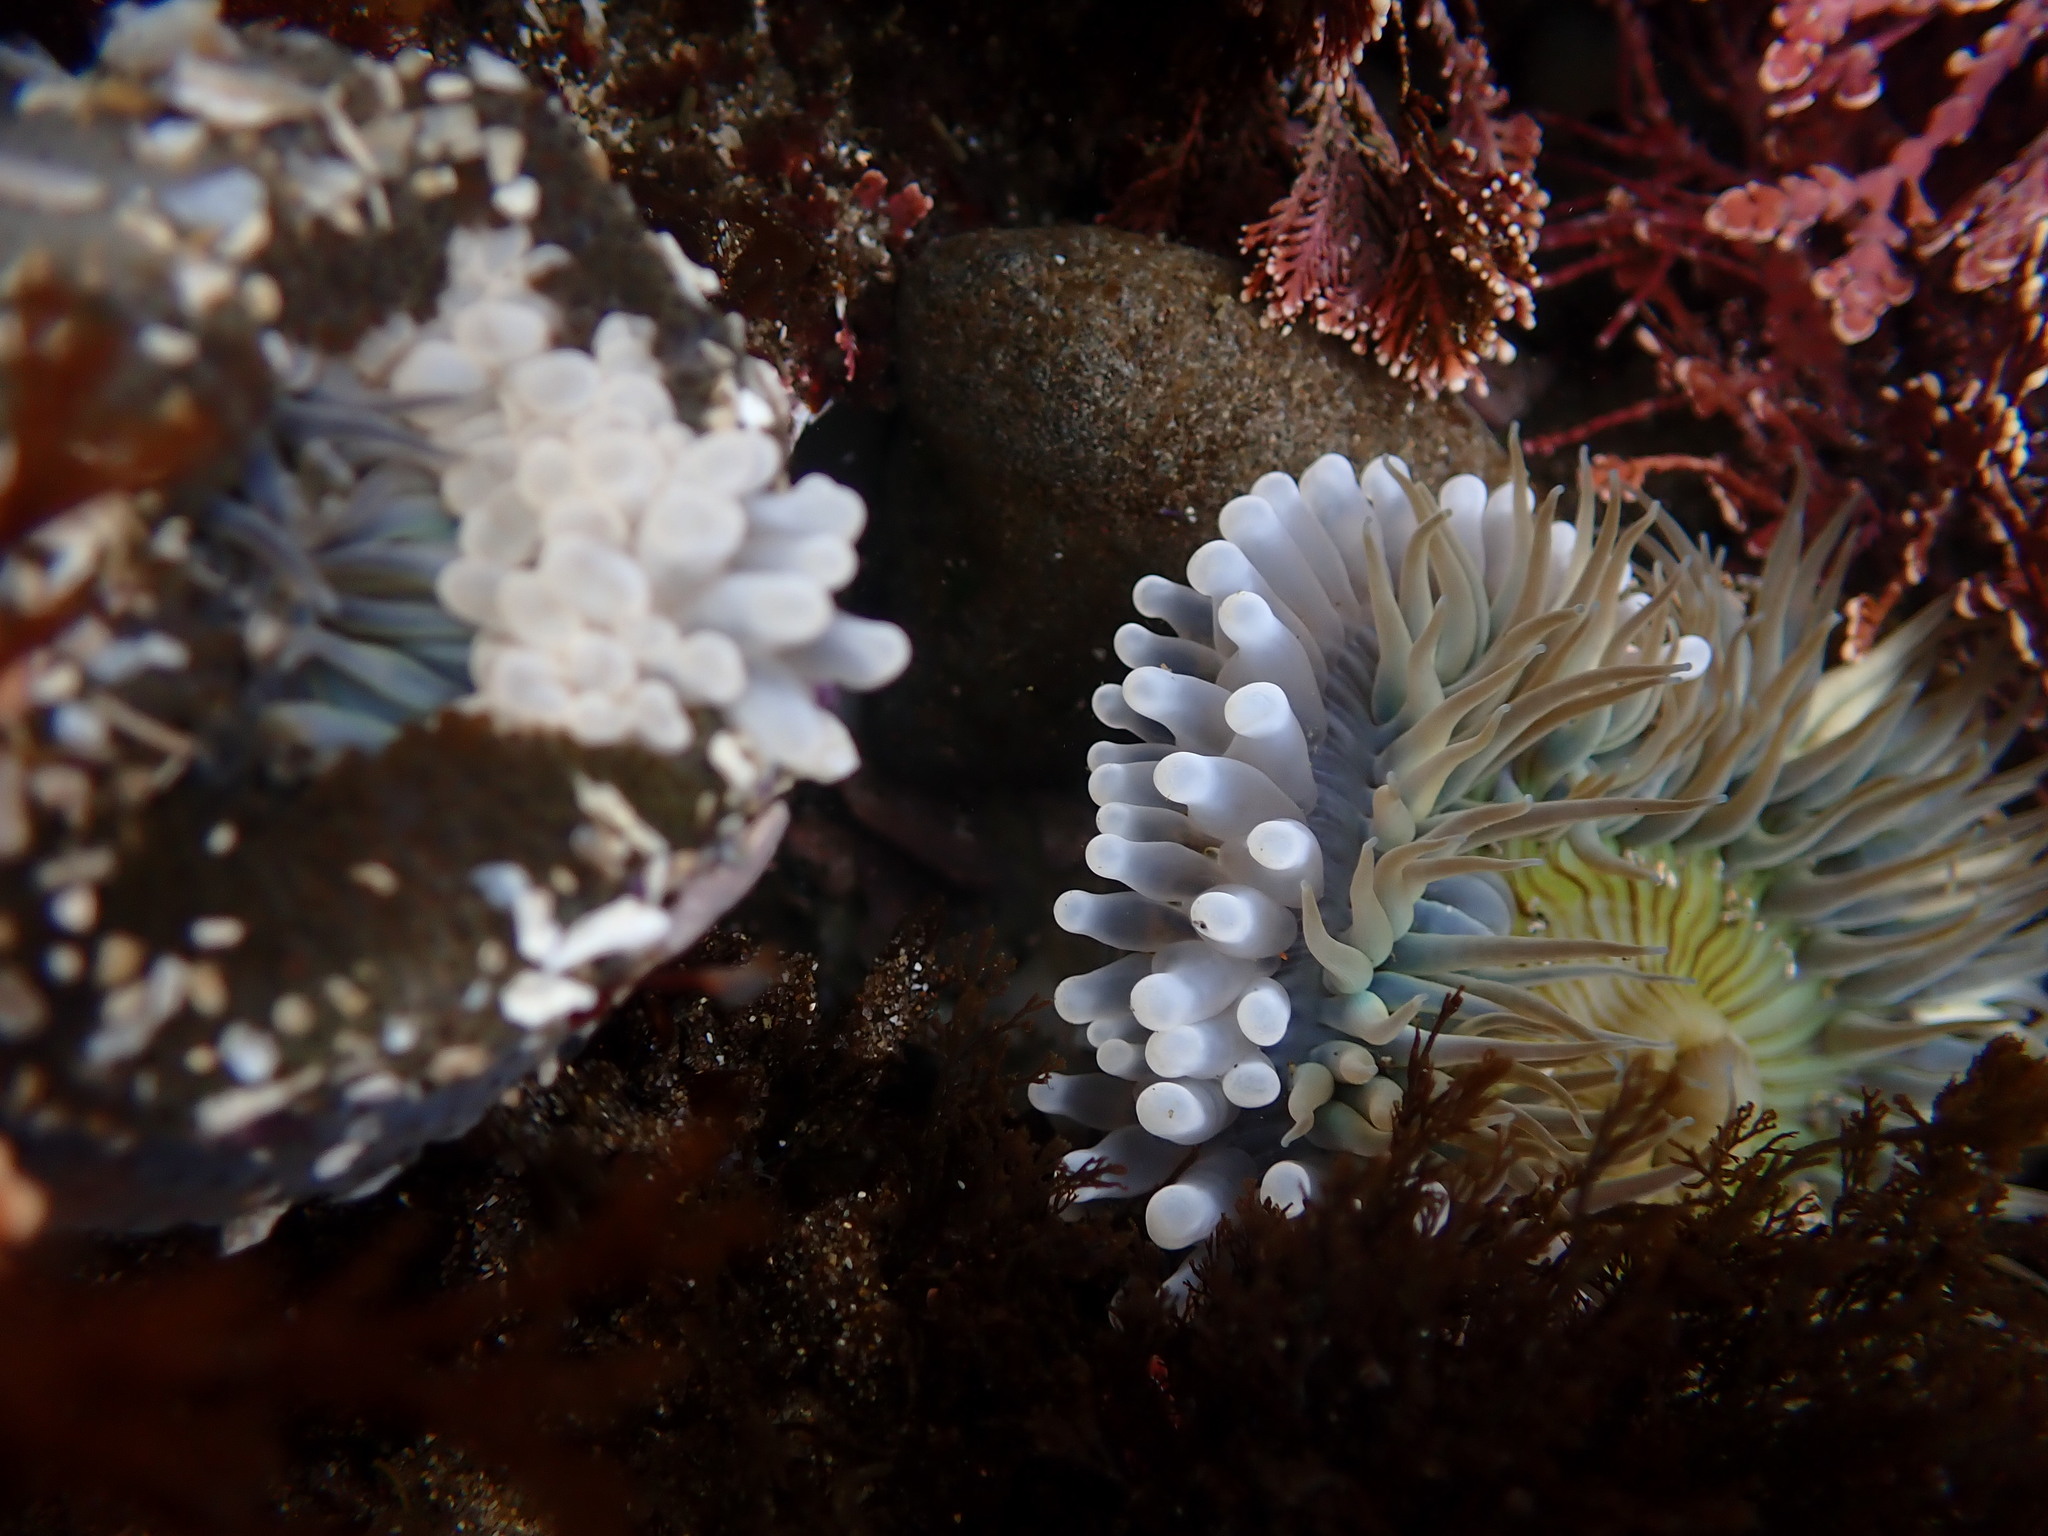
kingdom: Animalia
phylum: Cnidaria
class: Anthozoa
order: Actiniaria
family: Actiniidae
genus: Anthopleura
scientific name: Anthopleura sola
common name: Sun anemone
